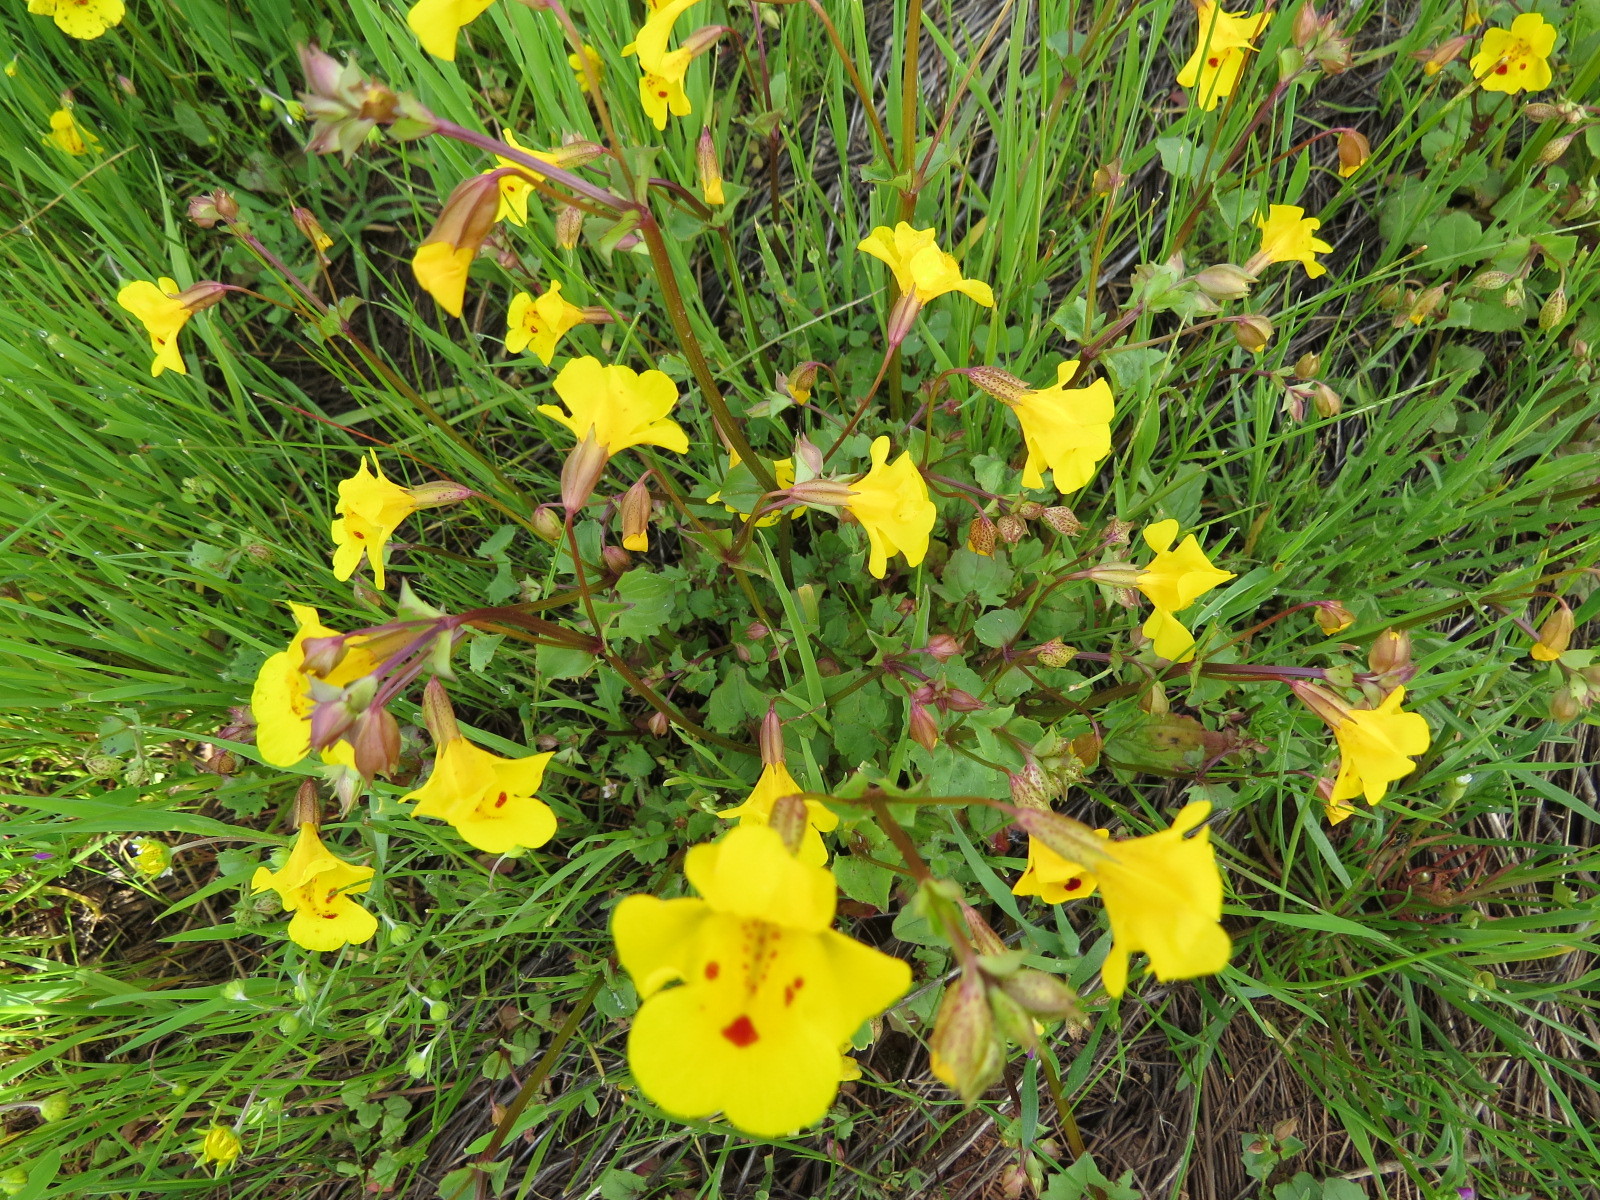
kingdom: Plantae
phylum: Tracheophyta
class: Magnoliopsida
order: Lamiales
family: Phrymaceae
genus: Erythranthe
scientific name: Erythranthe guttata
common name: Monkeyflower
